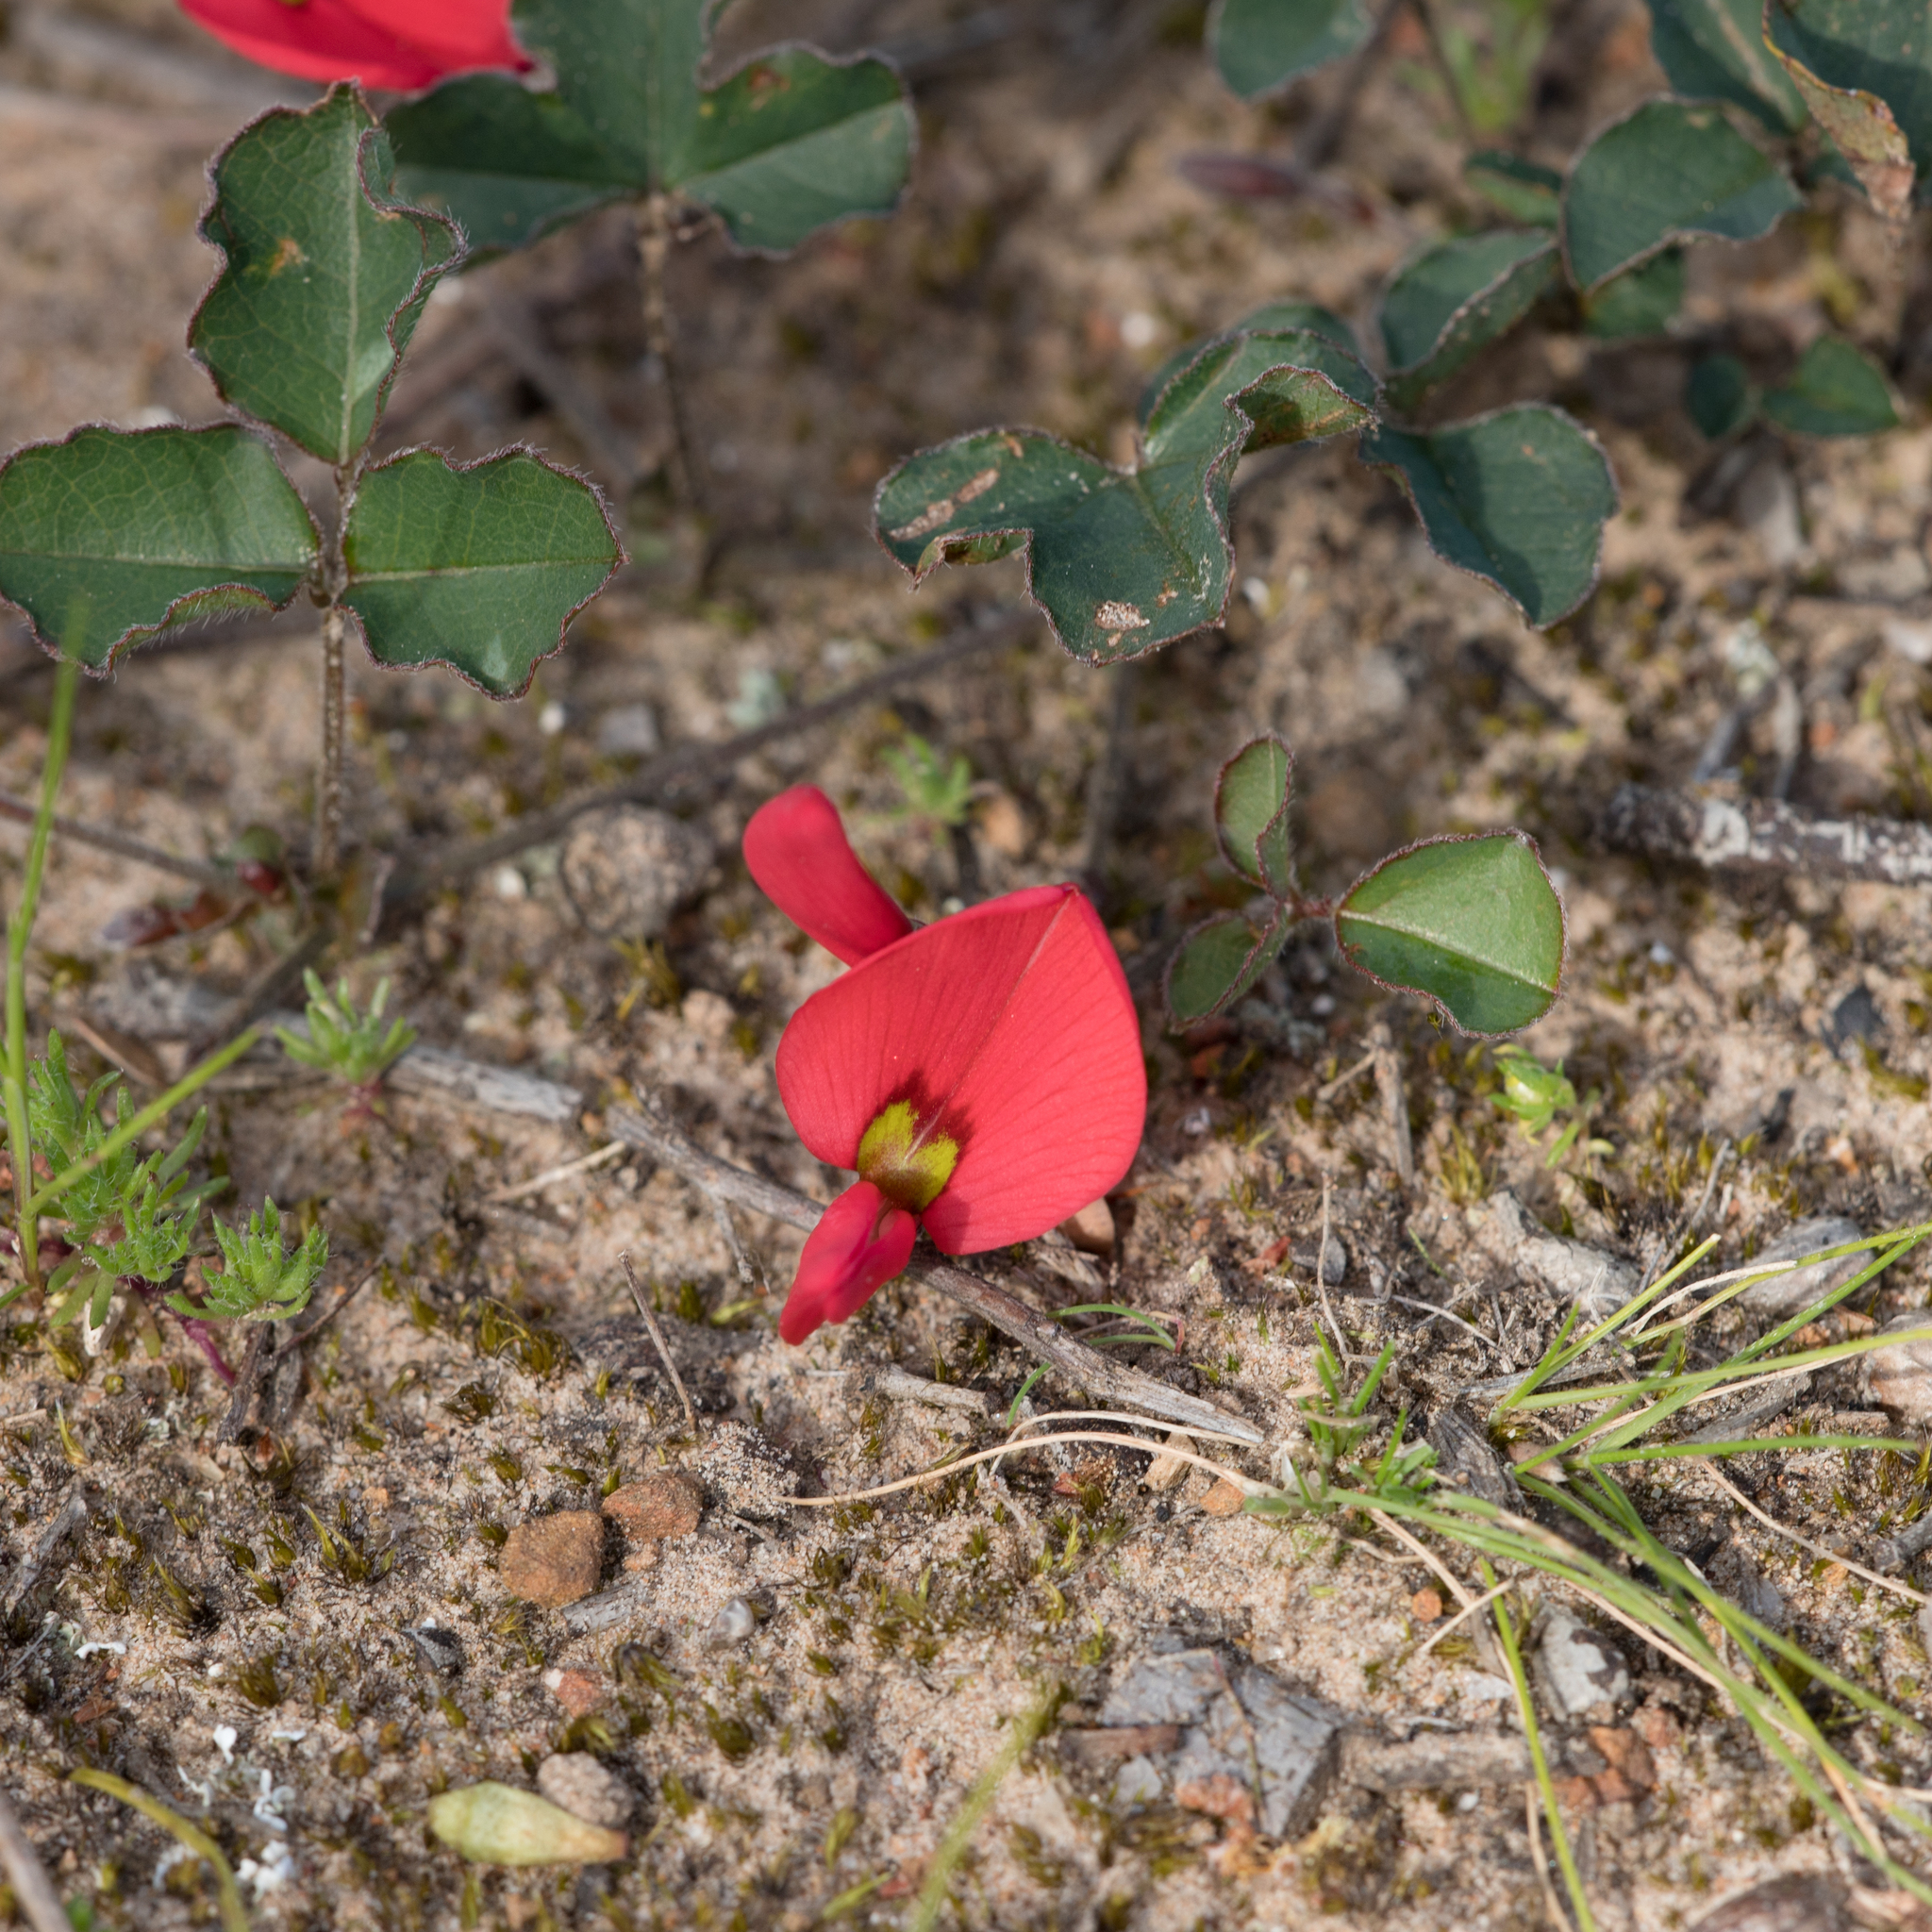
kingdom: Plantae
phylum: Tracheophyta
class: Magnoliopsida
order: Fabales
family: Fabaceae
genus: Kennedia
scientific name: Kennedia prostrata
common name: Running-postman
